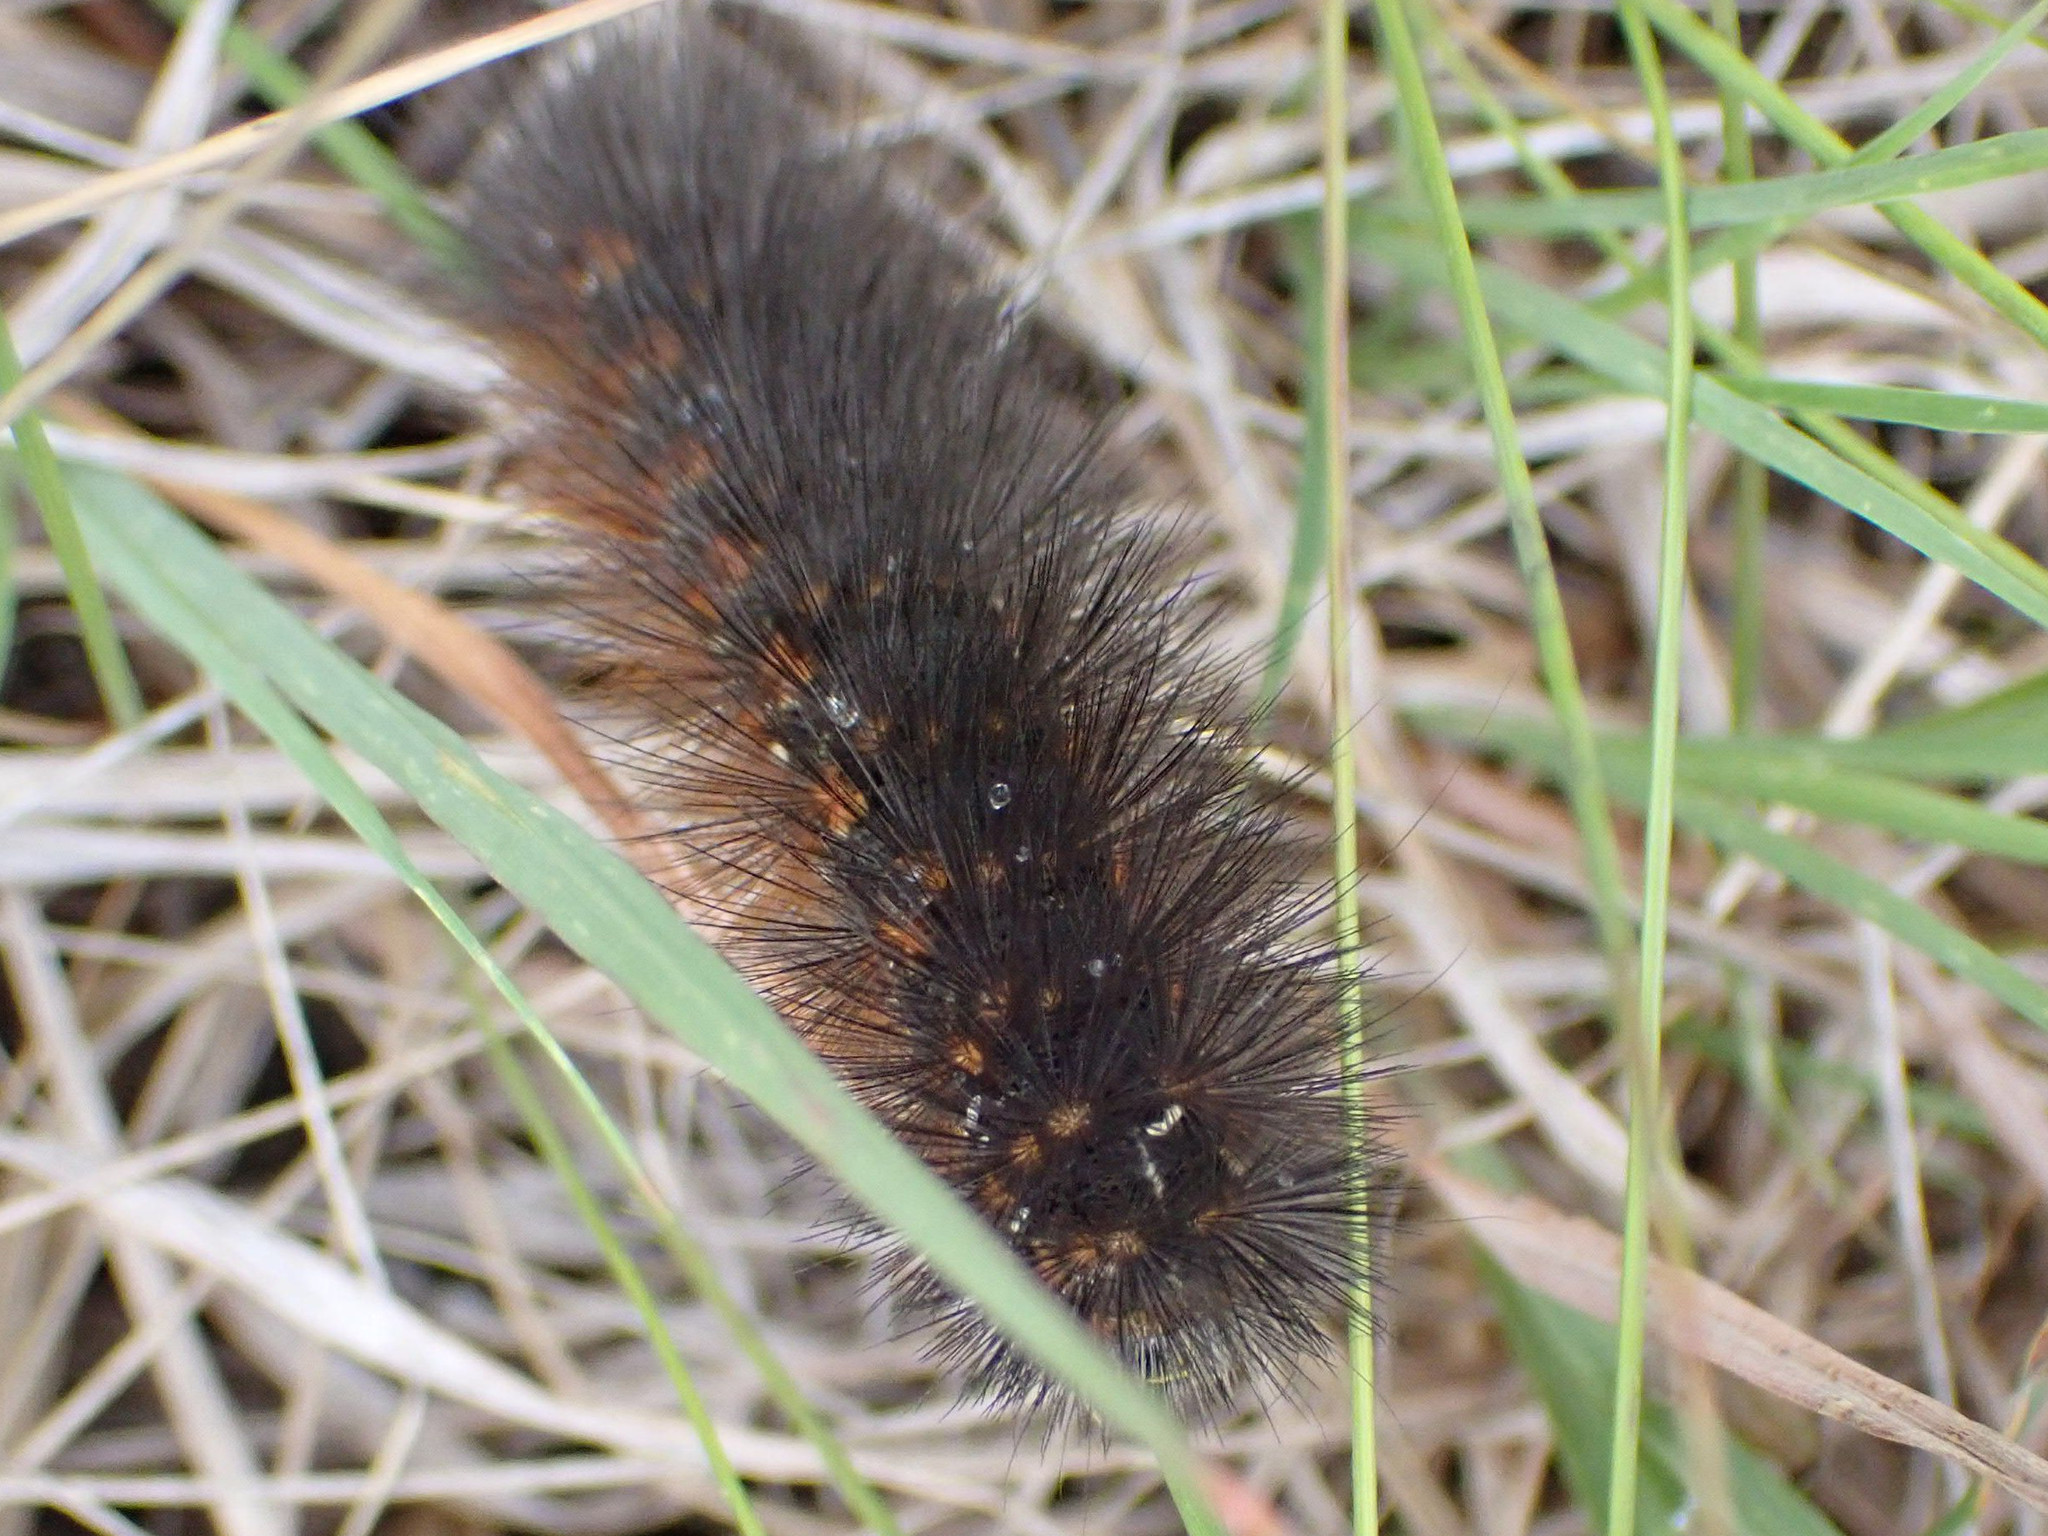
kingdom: Animalia
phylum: Arthropoda
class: Insecta
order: Lepidoptera
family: Erebidae
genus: Estigmene
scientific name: Estigmene acrea
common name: Salt marsh moth
